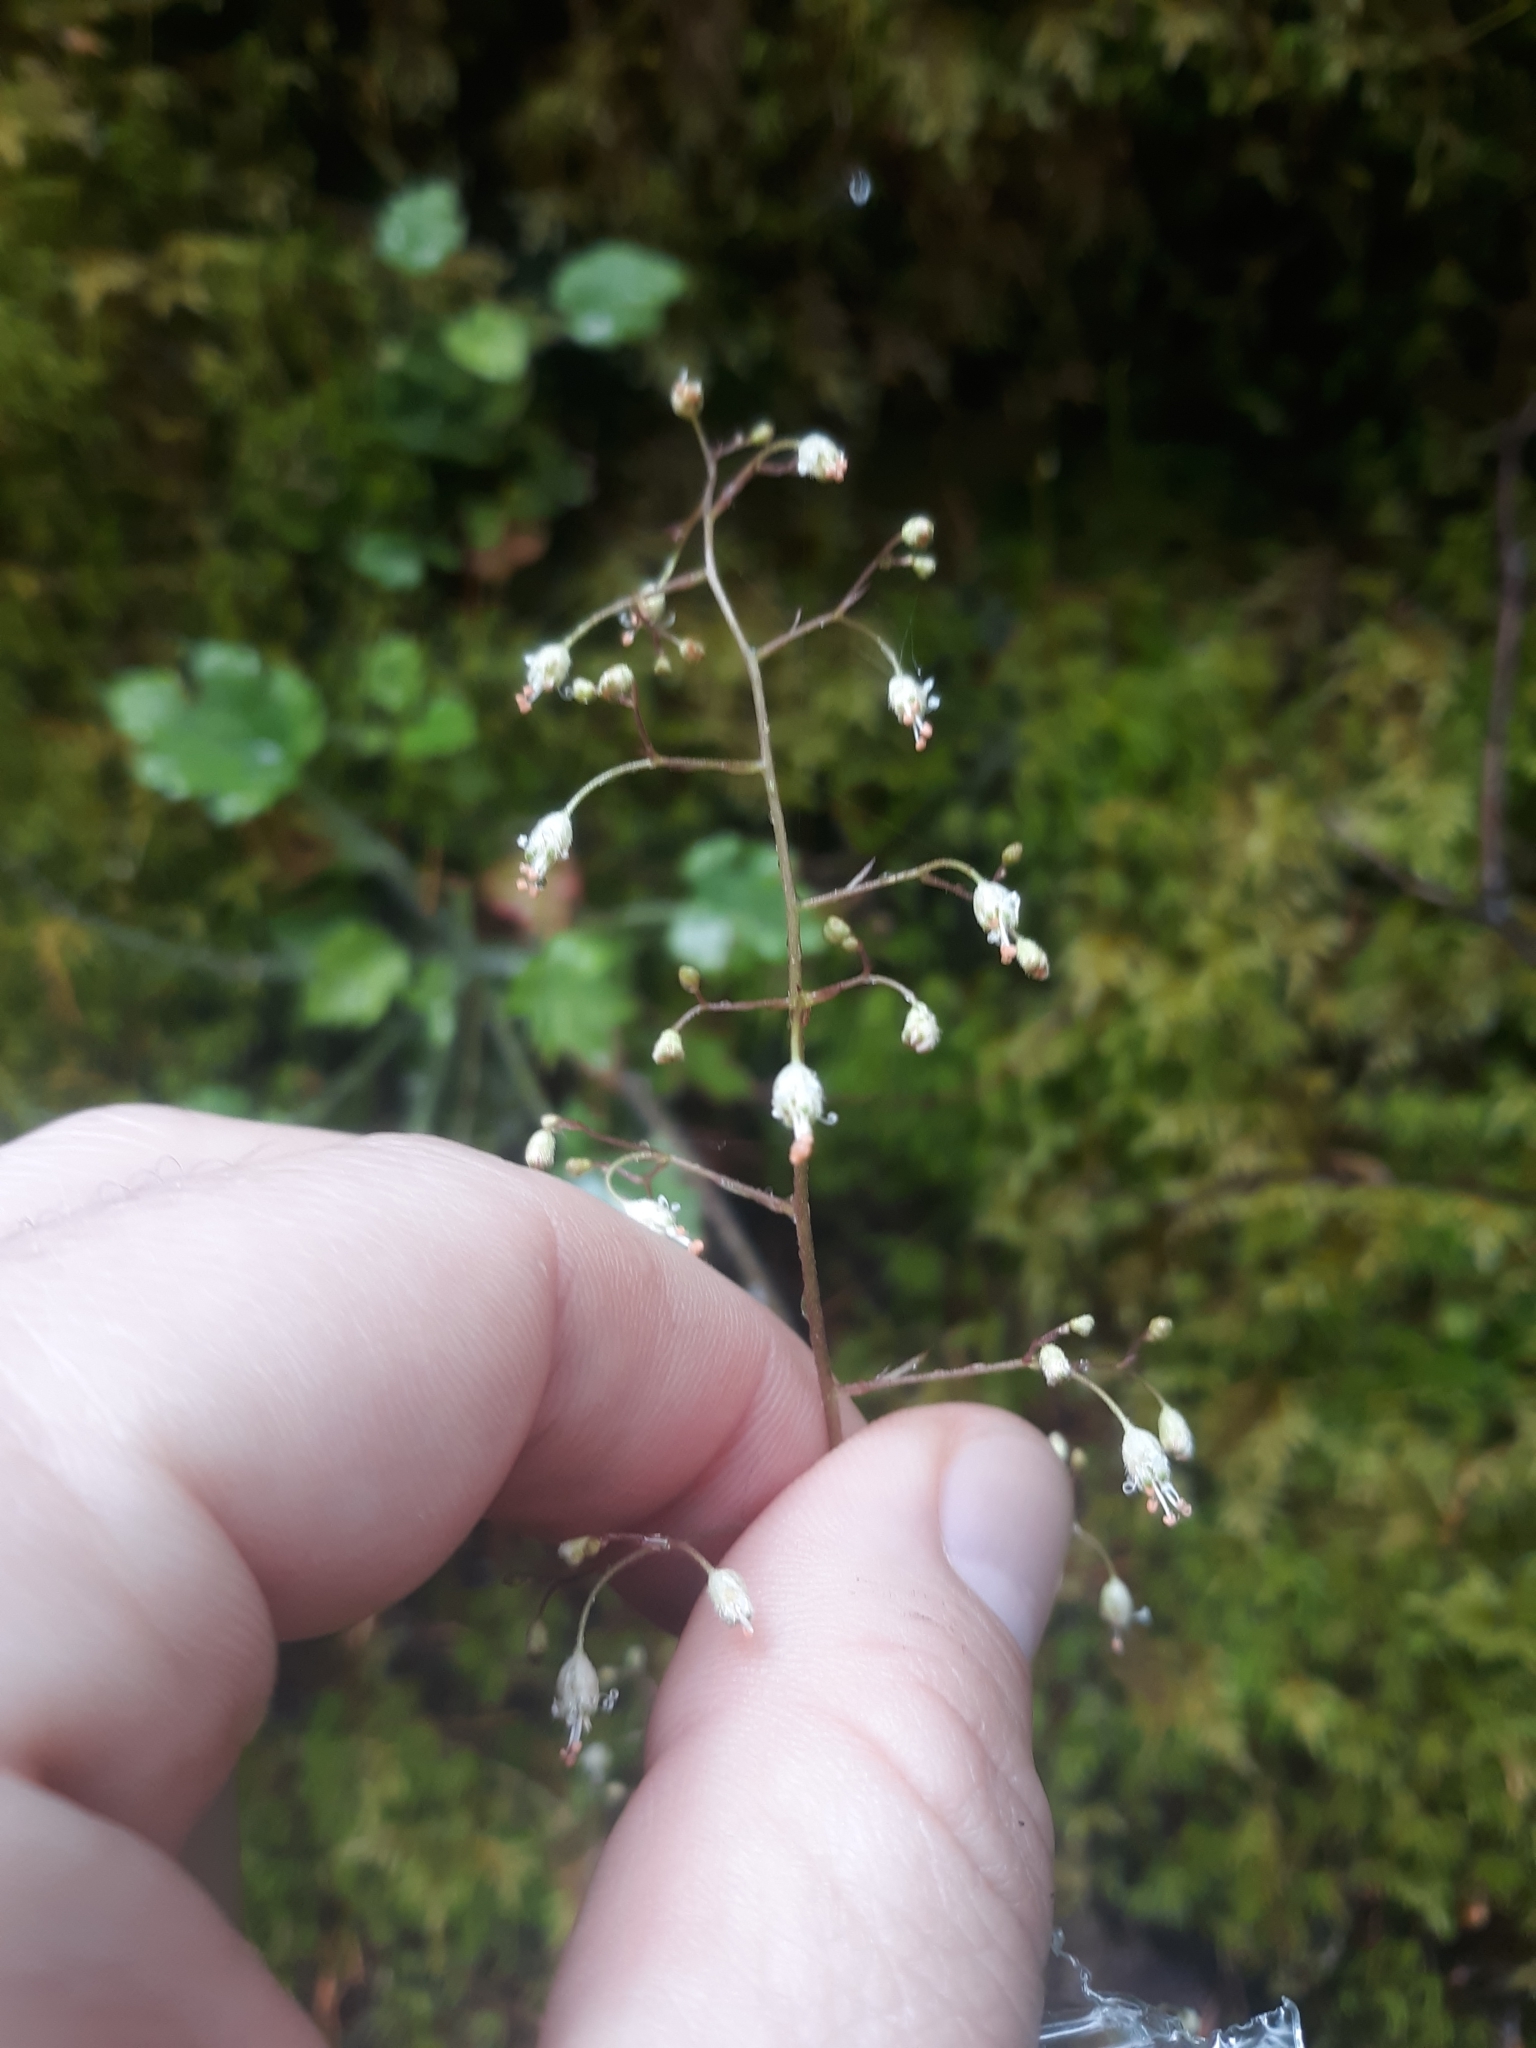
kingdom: Plantae
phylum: Tracheophyta
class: Magnoliopsida
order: Saxifragales
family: Saxifragaceae
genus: Heuchera
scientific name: Heuchera micrantha
